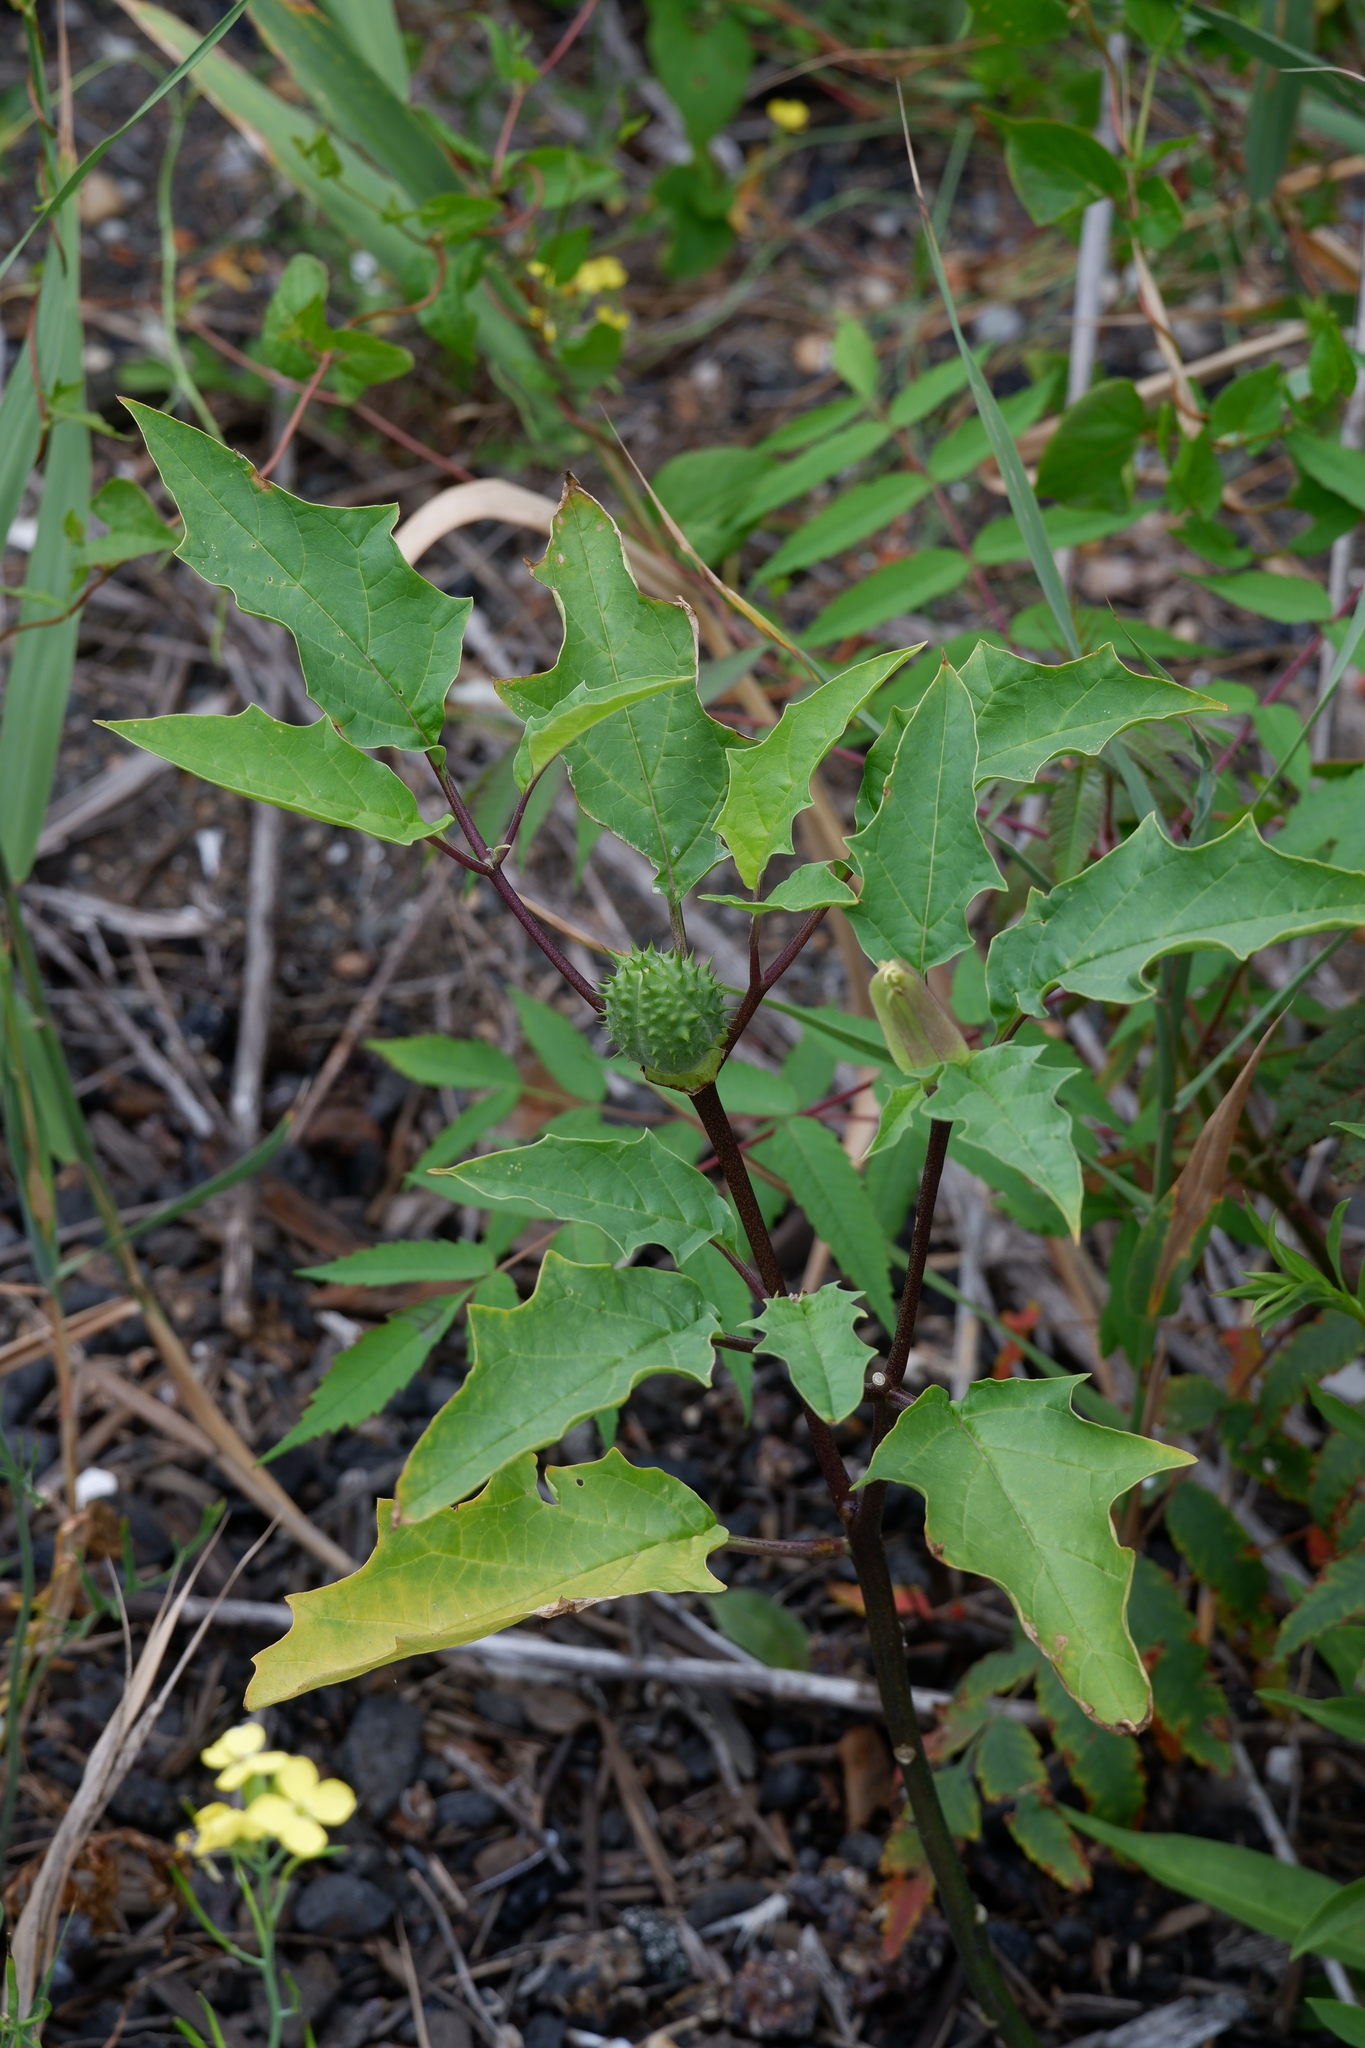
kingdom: Plantae
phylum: Tracheophyta
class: Magnoliopsida
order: Solanales
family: Solanaceae
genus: Datura
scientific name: Datura stramonium
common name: Thorn-apple
